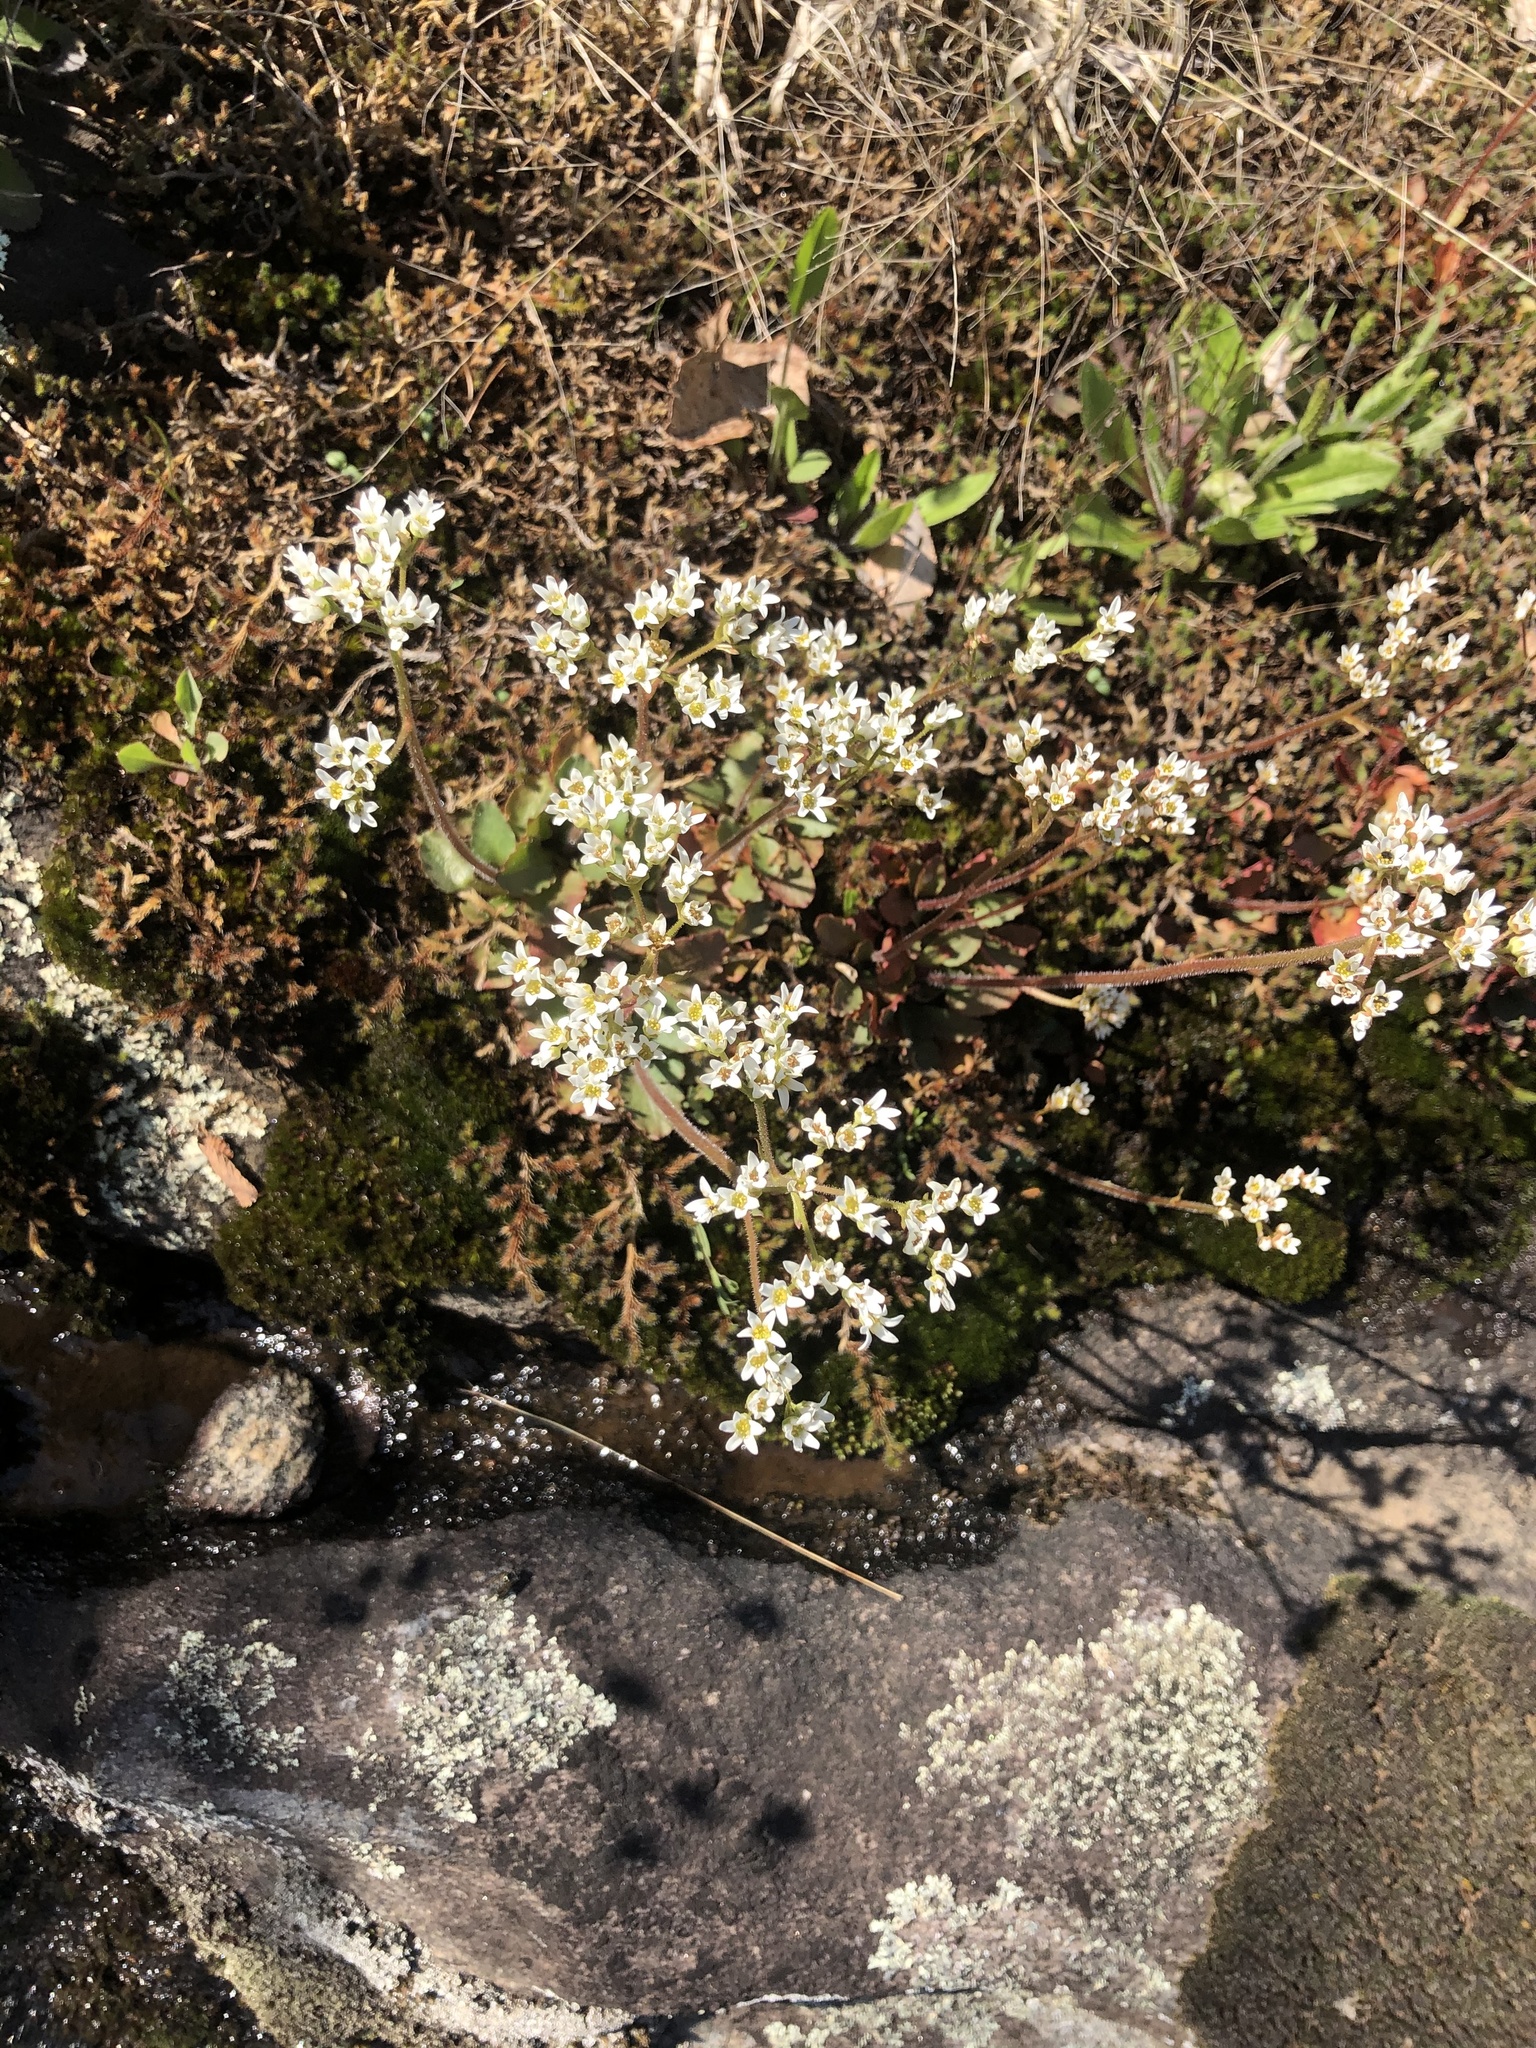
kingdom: Plantae
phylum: Tracheophyta
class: Magnoliopsida
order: Saxifragales
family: Saxifragaceae
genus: Micranthes
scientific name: Micranthes virginiensis
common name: Early saxifrage
